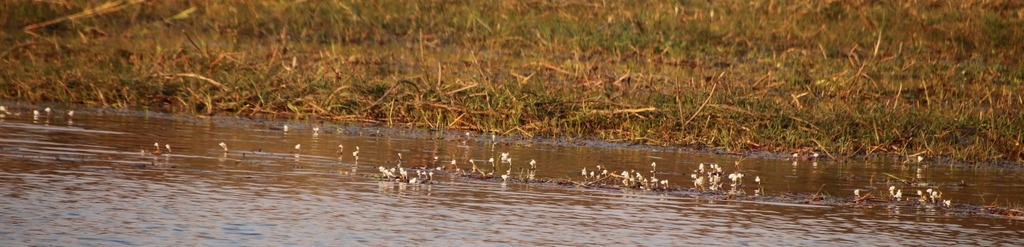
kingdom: Plantae
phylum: Tracheophyta
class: Liliopsida
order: Alismatales
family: Hydrocharitaceae
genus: Ottelia
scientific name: Ottelia muricata
